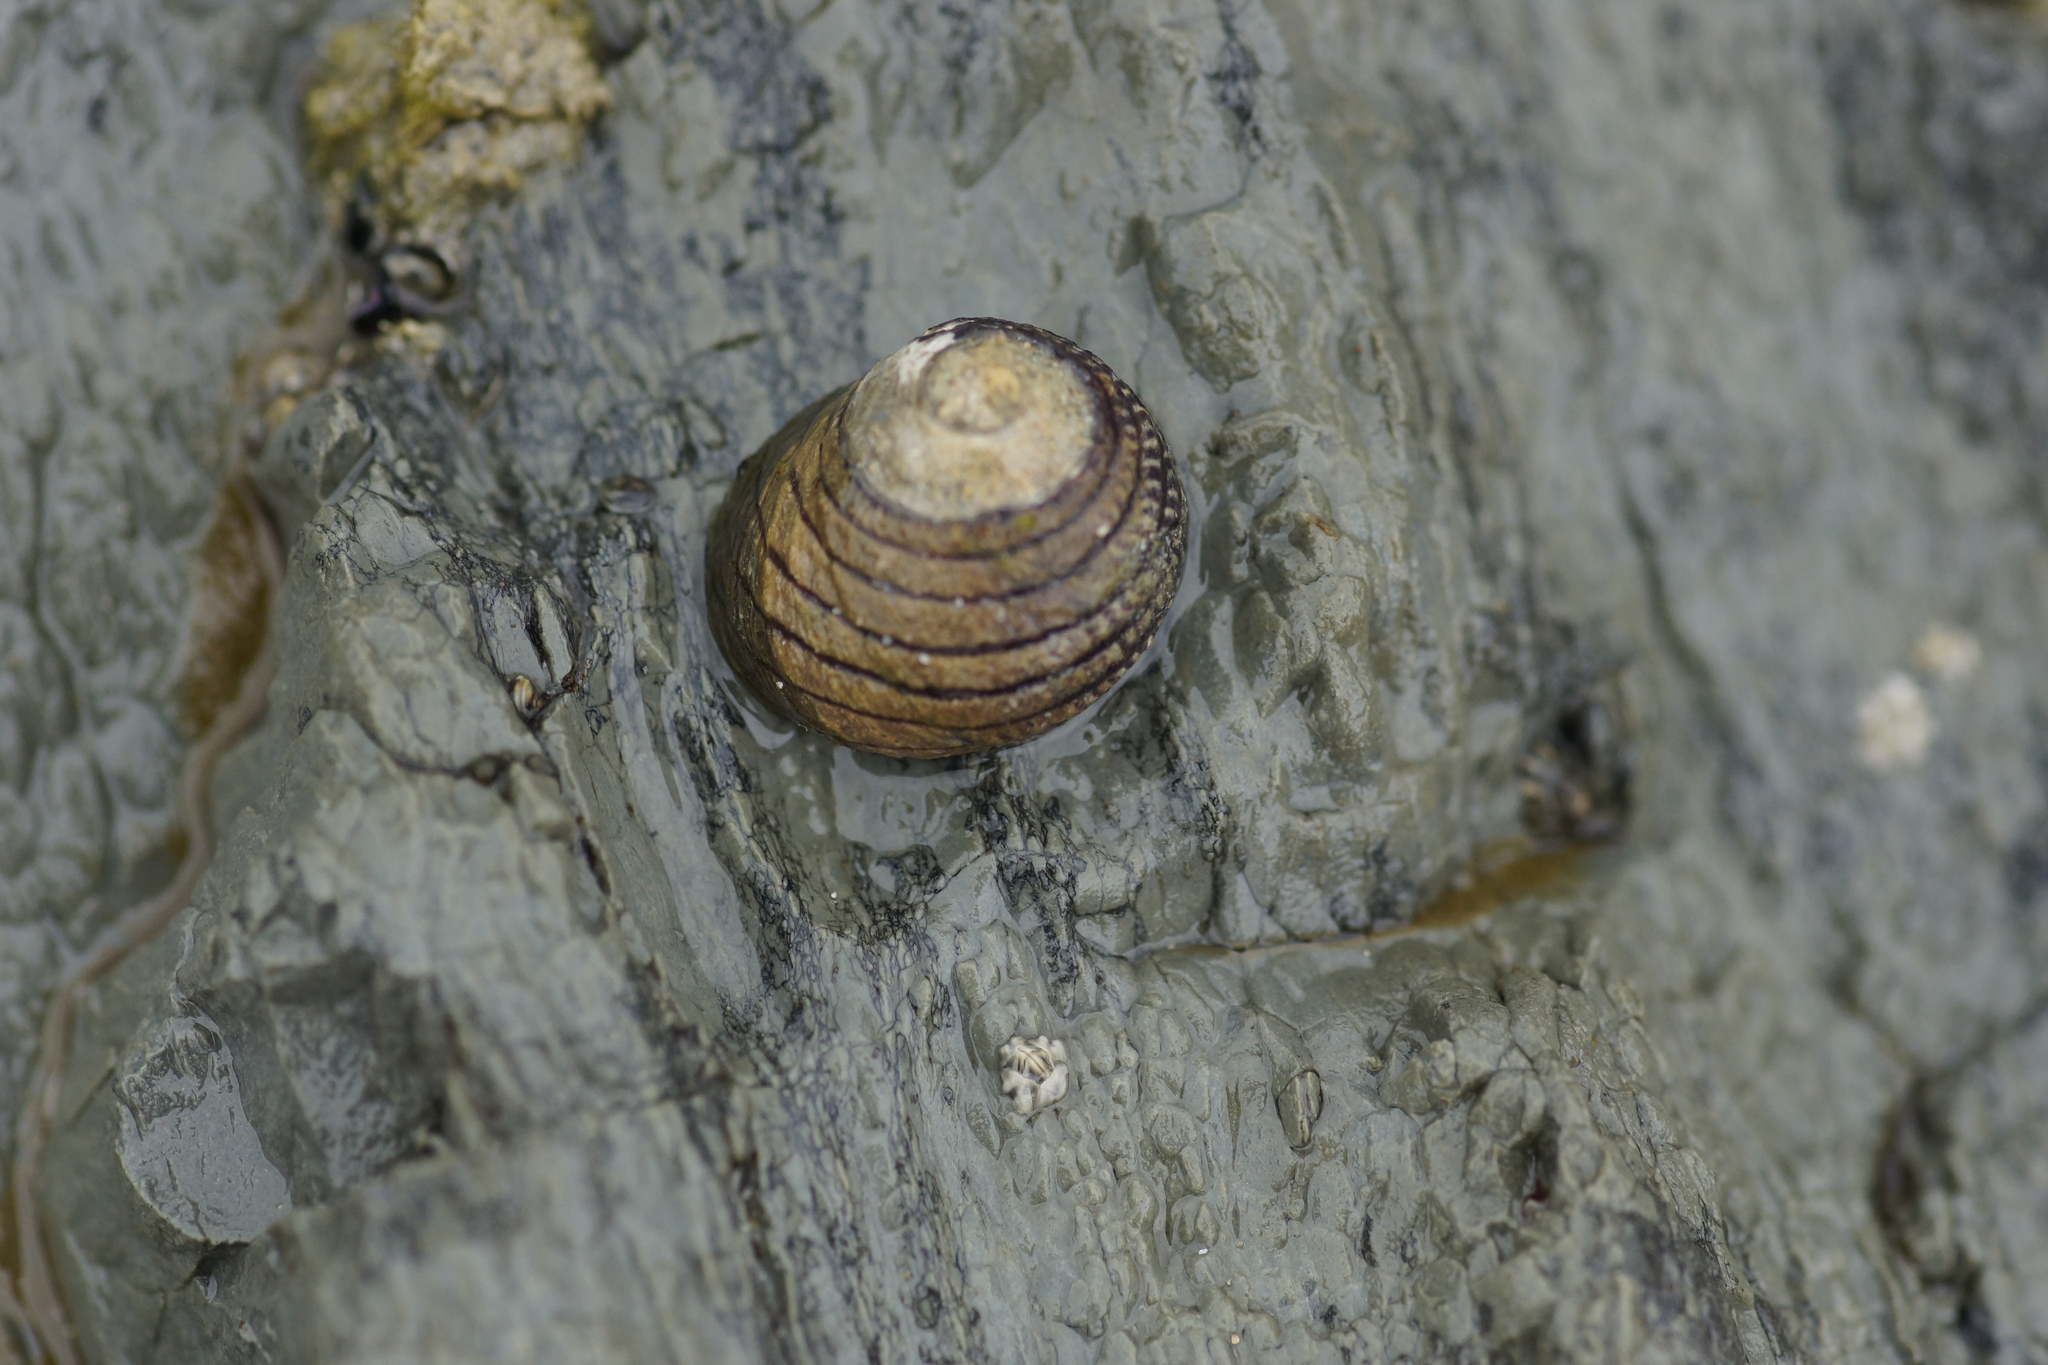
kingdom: Animalia
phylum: Mollusca
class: Gastropoda
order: Trochida
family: Trochidae
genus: Diloma
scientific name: Diloma aethiops
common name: Scorched monodont
